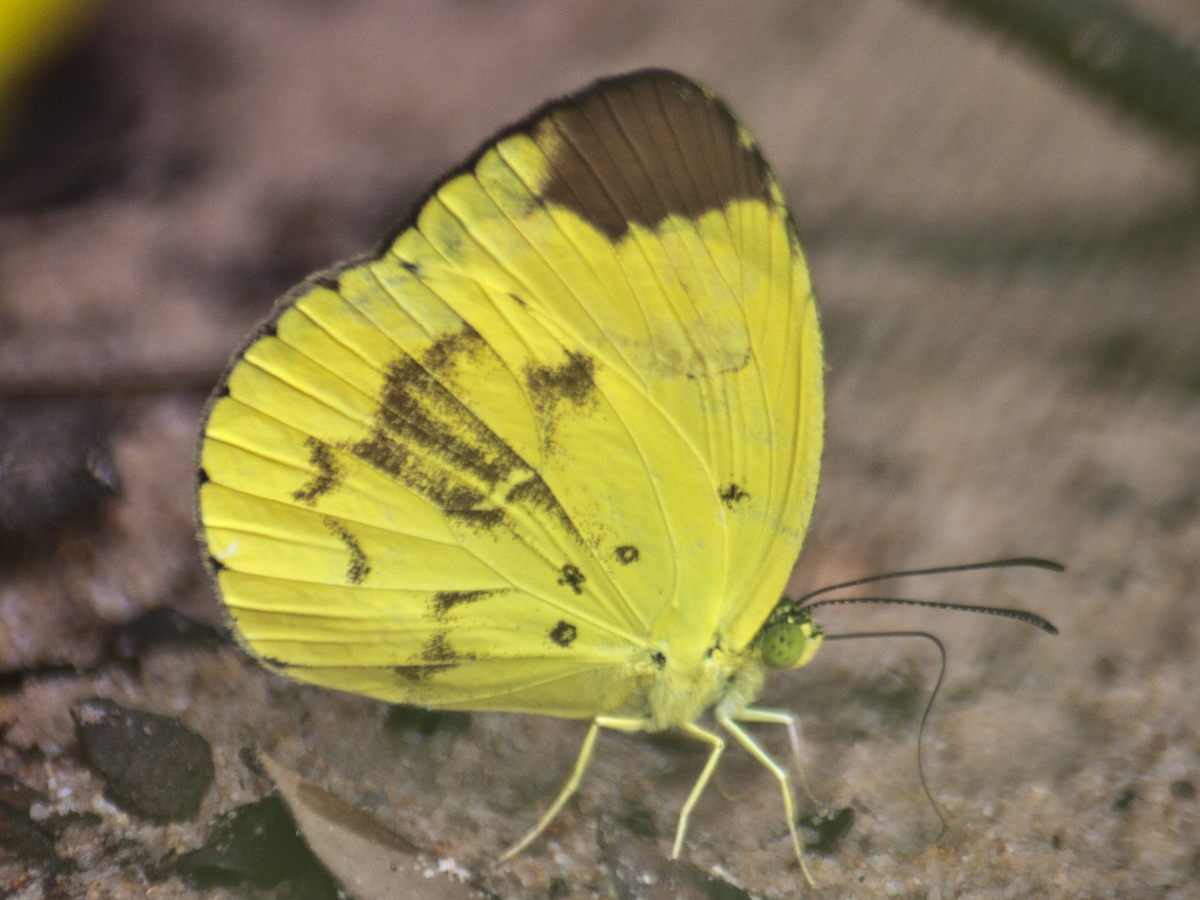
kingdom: Animalia
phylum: Arthropoda
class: Insecta
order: Lepidoptera
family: Pieridae
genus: Eurema
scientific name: Eurema sari
